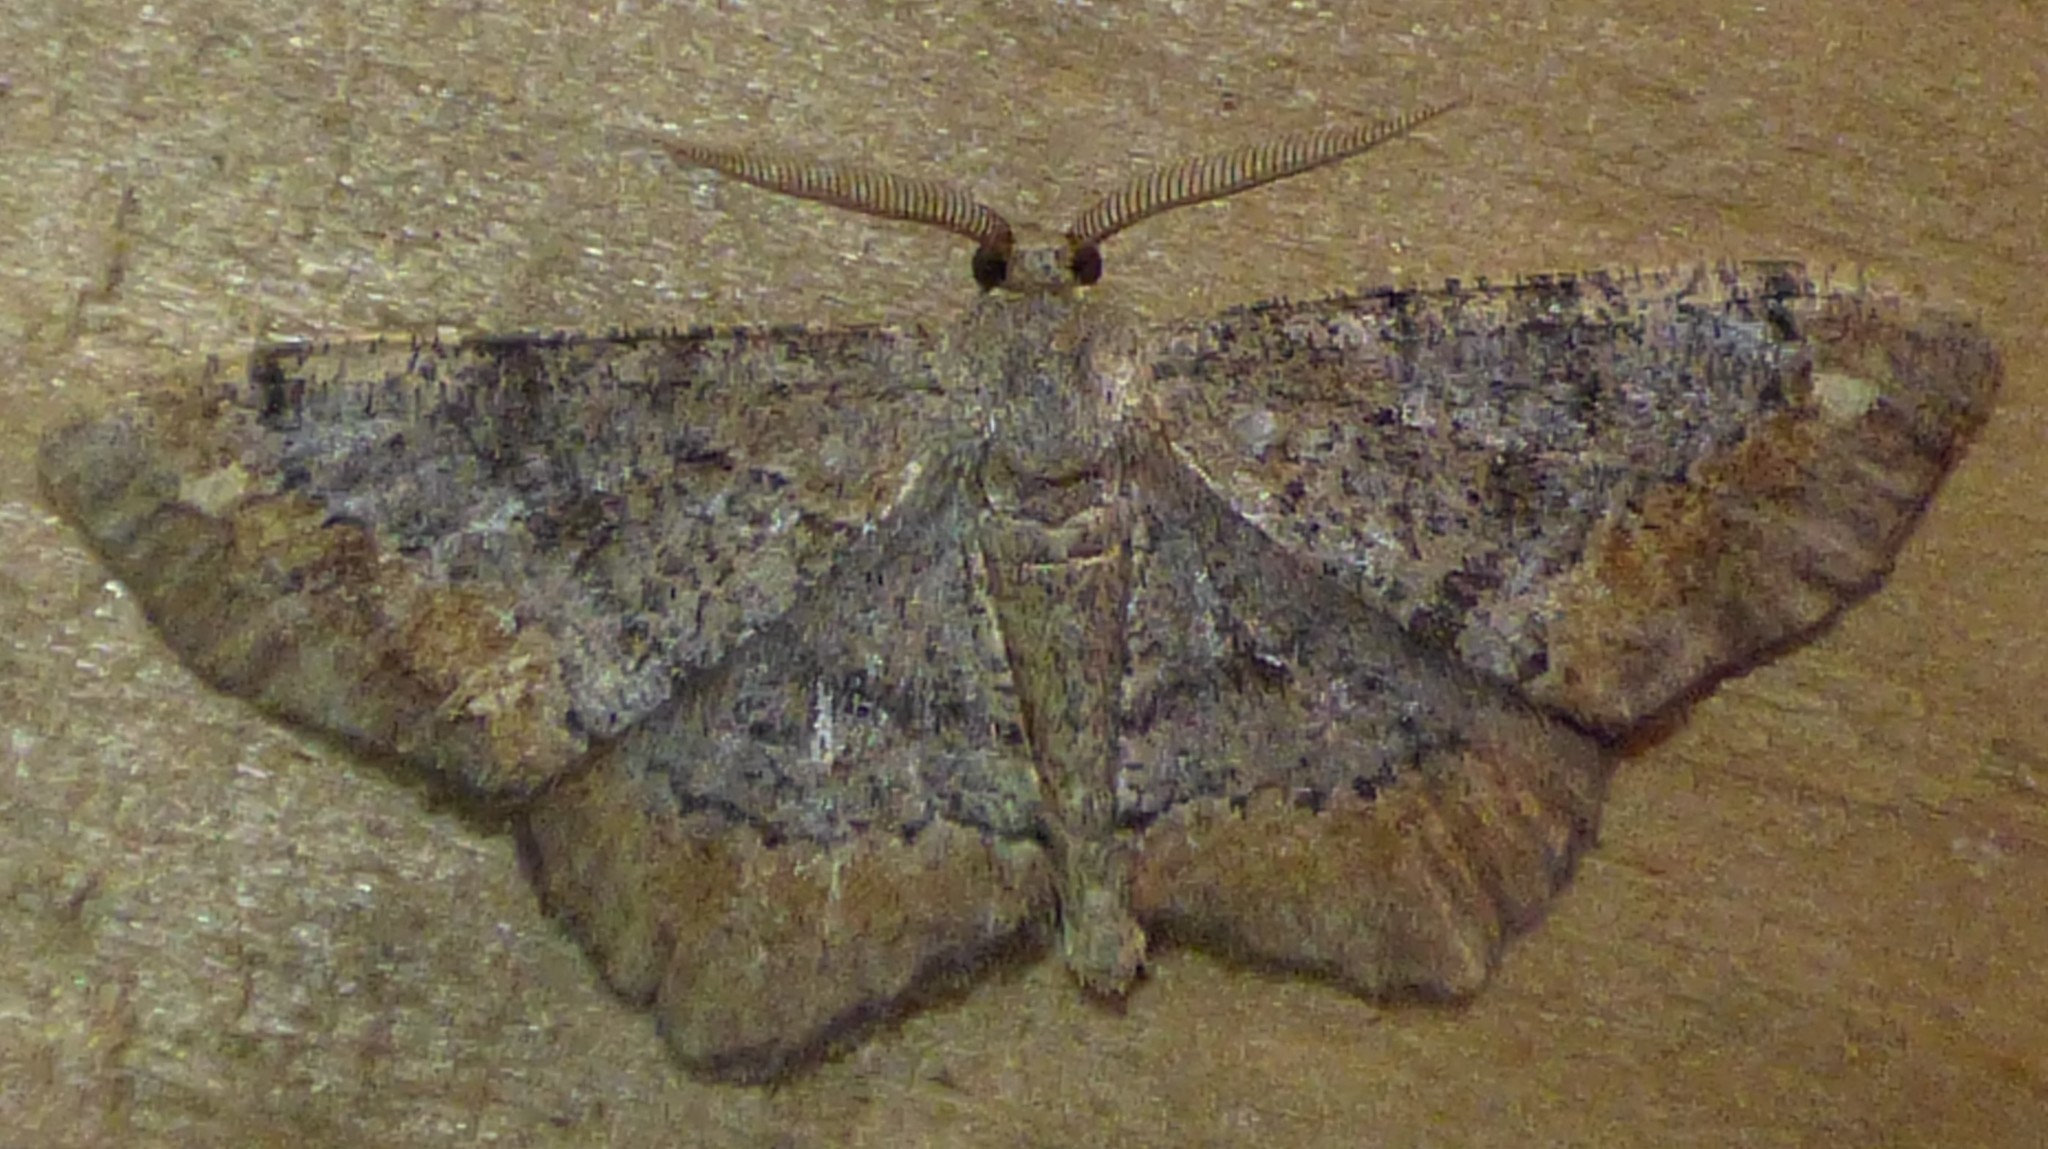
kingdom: Animalia
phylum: Arthropoda
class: Insecta
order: Lepidoptera
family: Geometridae
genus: Hypagyrtis
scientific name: Hypagyrtis unipunctata
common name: One-spotted variant
